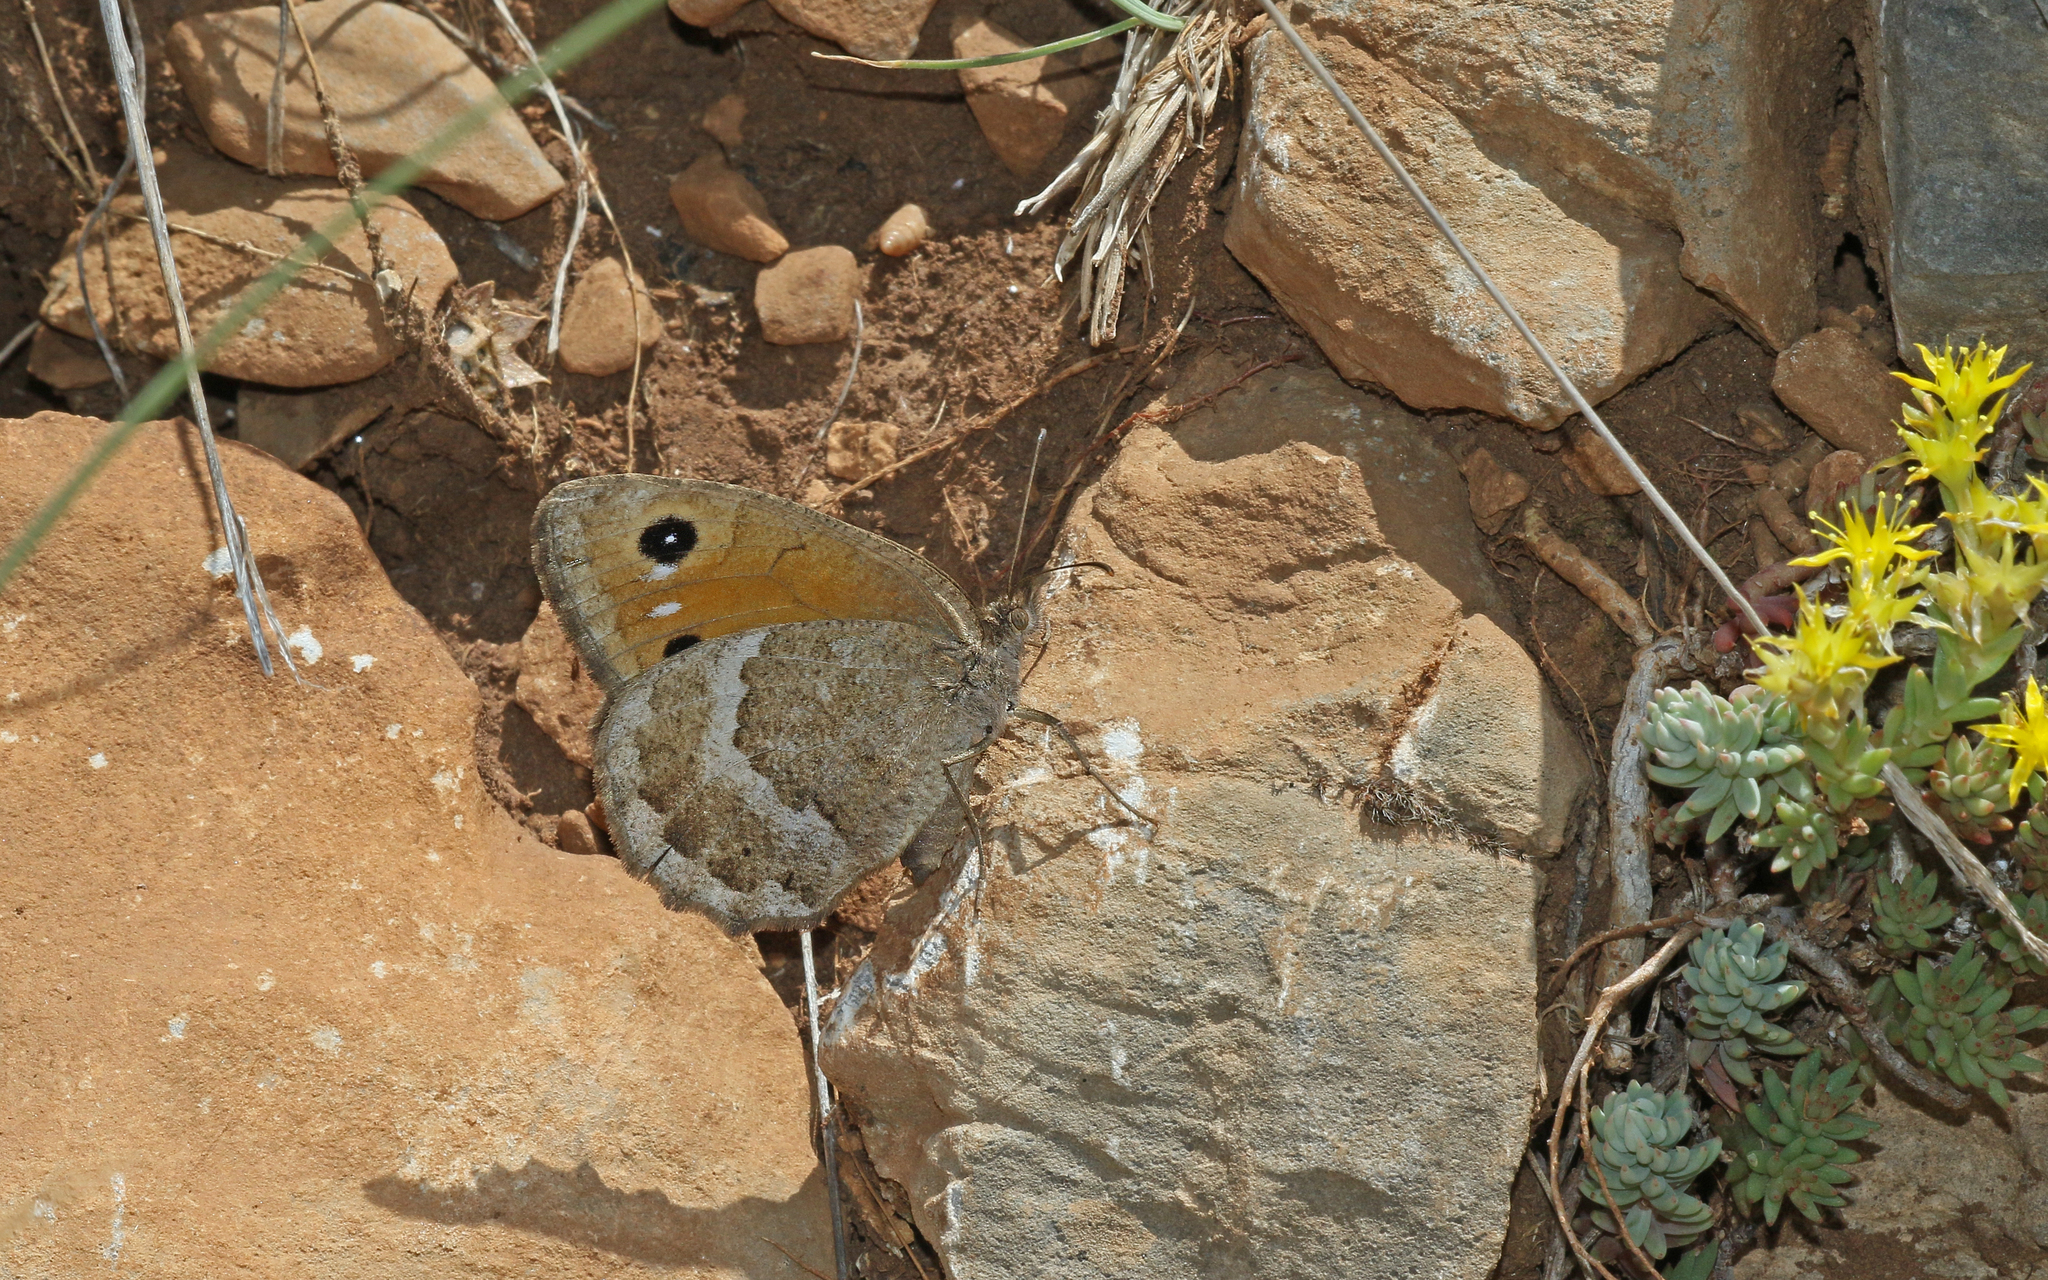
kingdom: Animalia
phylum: Arthropoda
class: Insecta
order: Lepidoptera
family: Nymphalidae
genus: Satyrus
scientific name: Satyrus ferula
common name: Great sooty satyr
